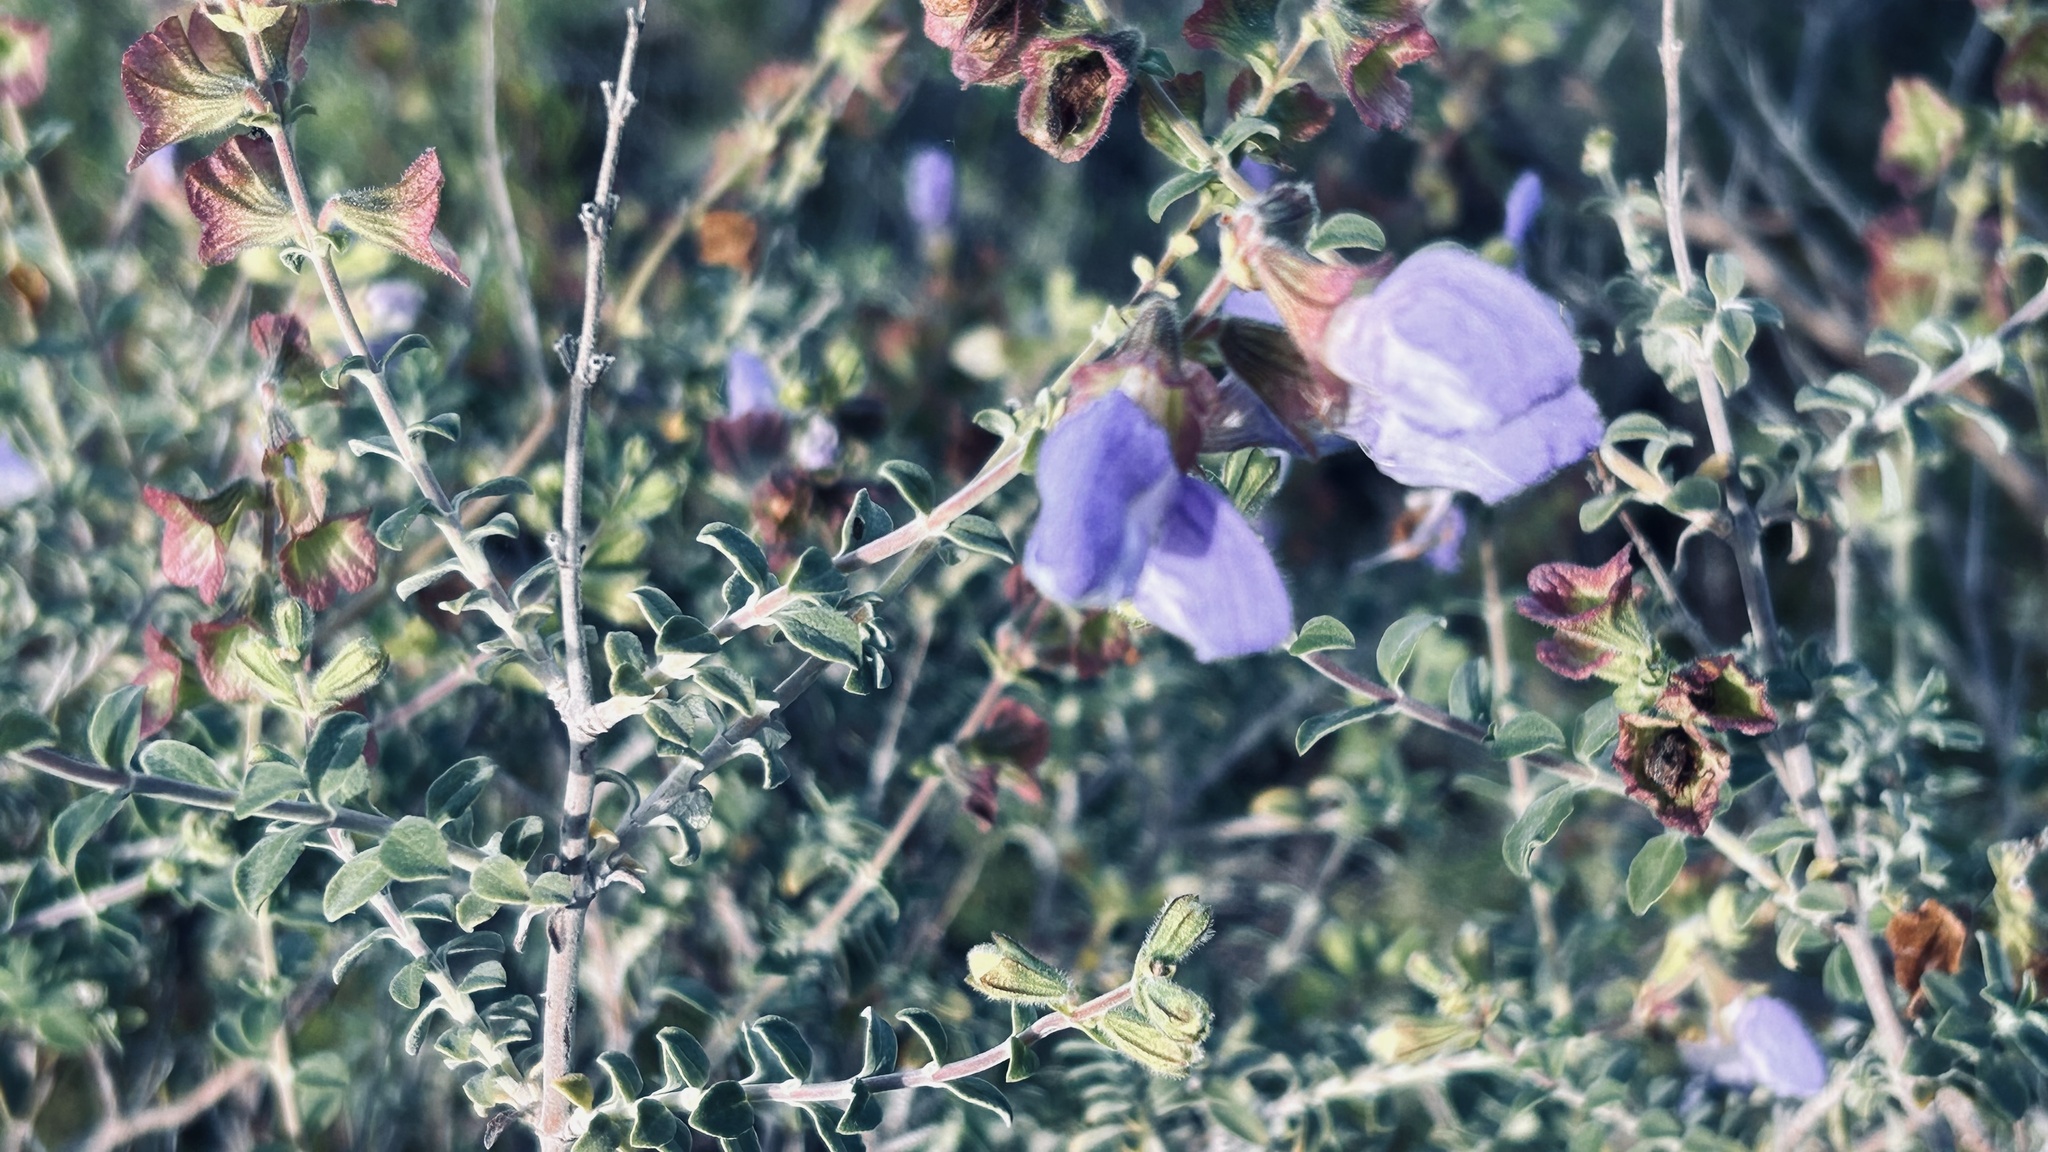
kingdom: Plantae
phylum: Tracheophyta
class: Magnoliopsida
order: Lamiales
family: Lamiaceae
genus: Salvia
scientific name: Salvia africana
